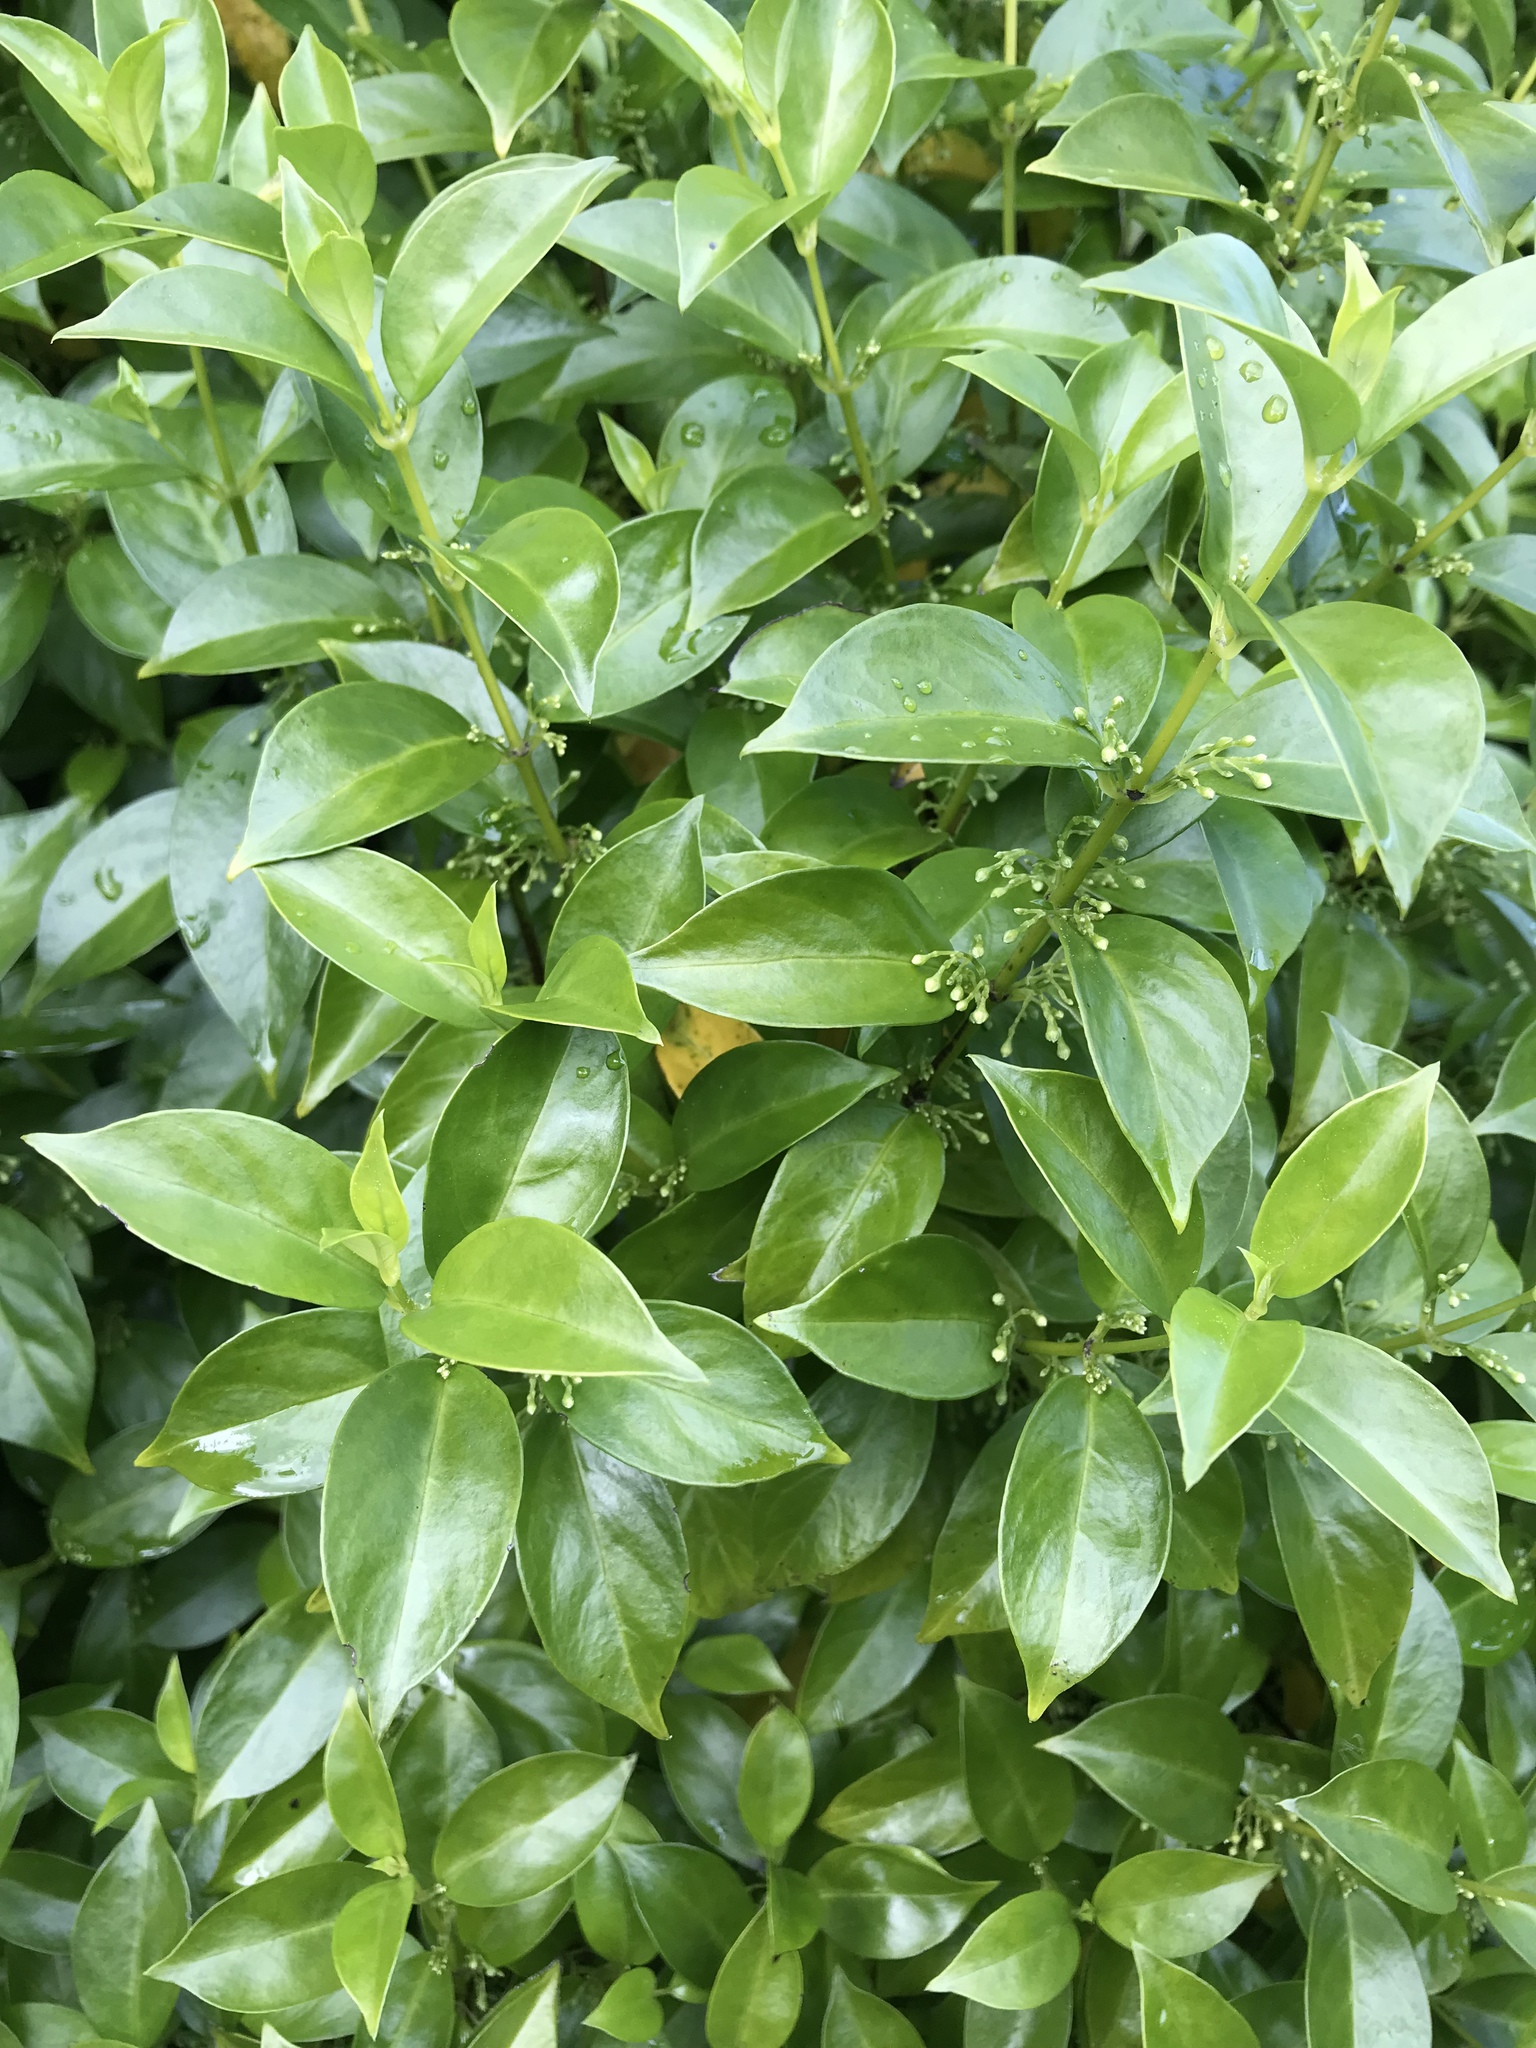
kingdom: Plantae
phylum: Tracheophyta
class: Magnoliopsida
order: Gentianales
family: Loganiaceae
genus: Geniostoma
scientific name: Geniostoma ligustrifolium
